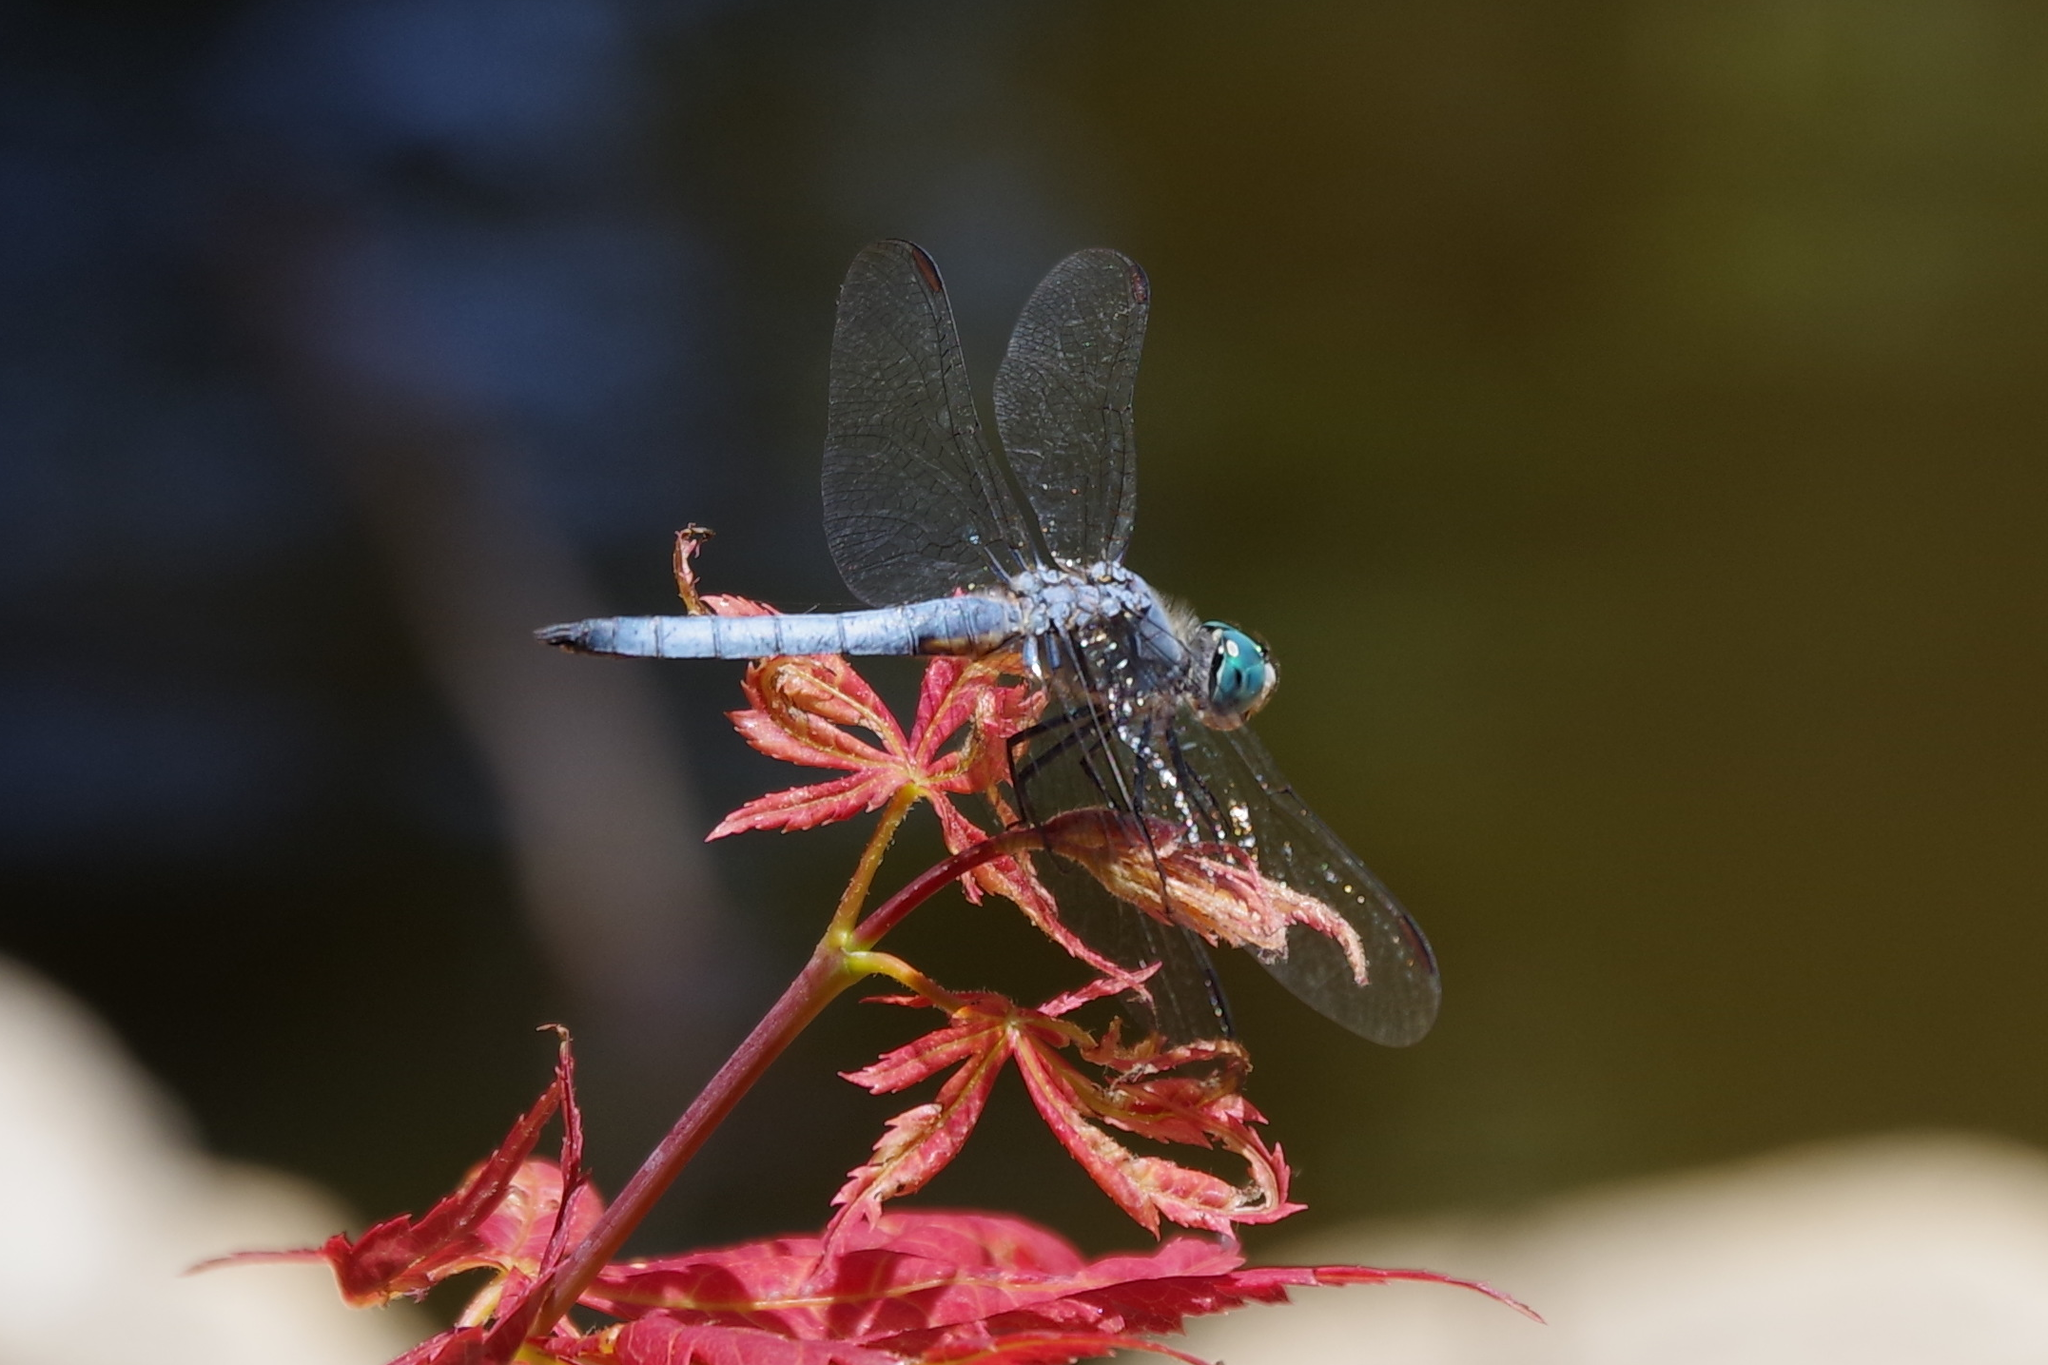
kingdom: Animalia
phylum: Arthropoda
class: Insecta
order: Odonata
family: Libellulidae
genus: Pachydiplax
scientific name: Pachydiplax longipennis
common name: Blue dasher
